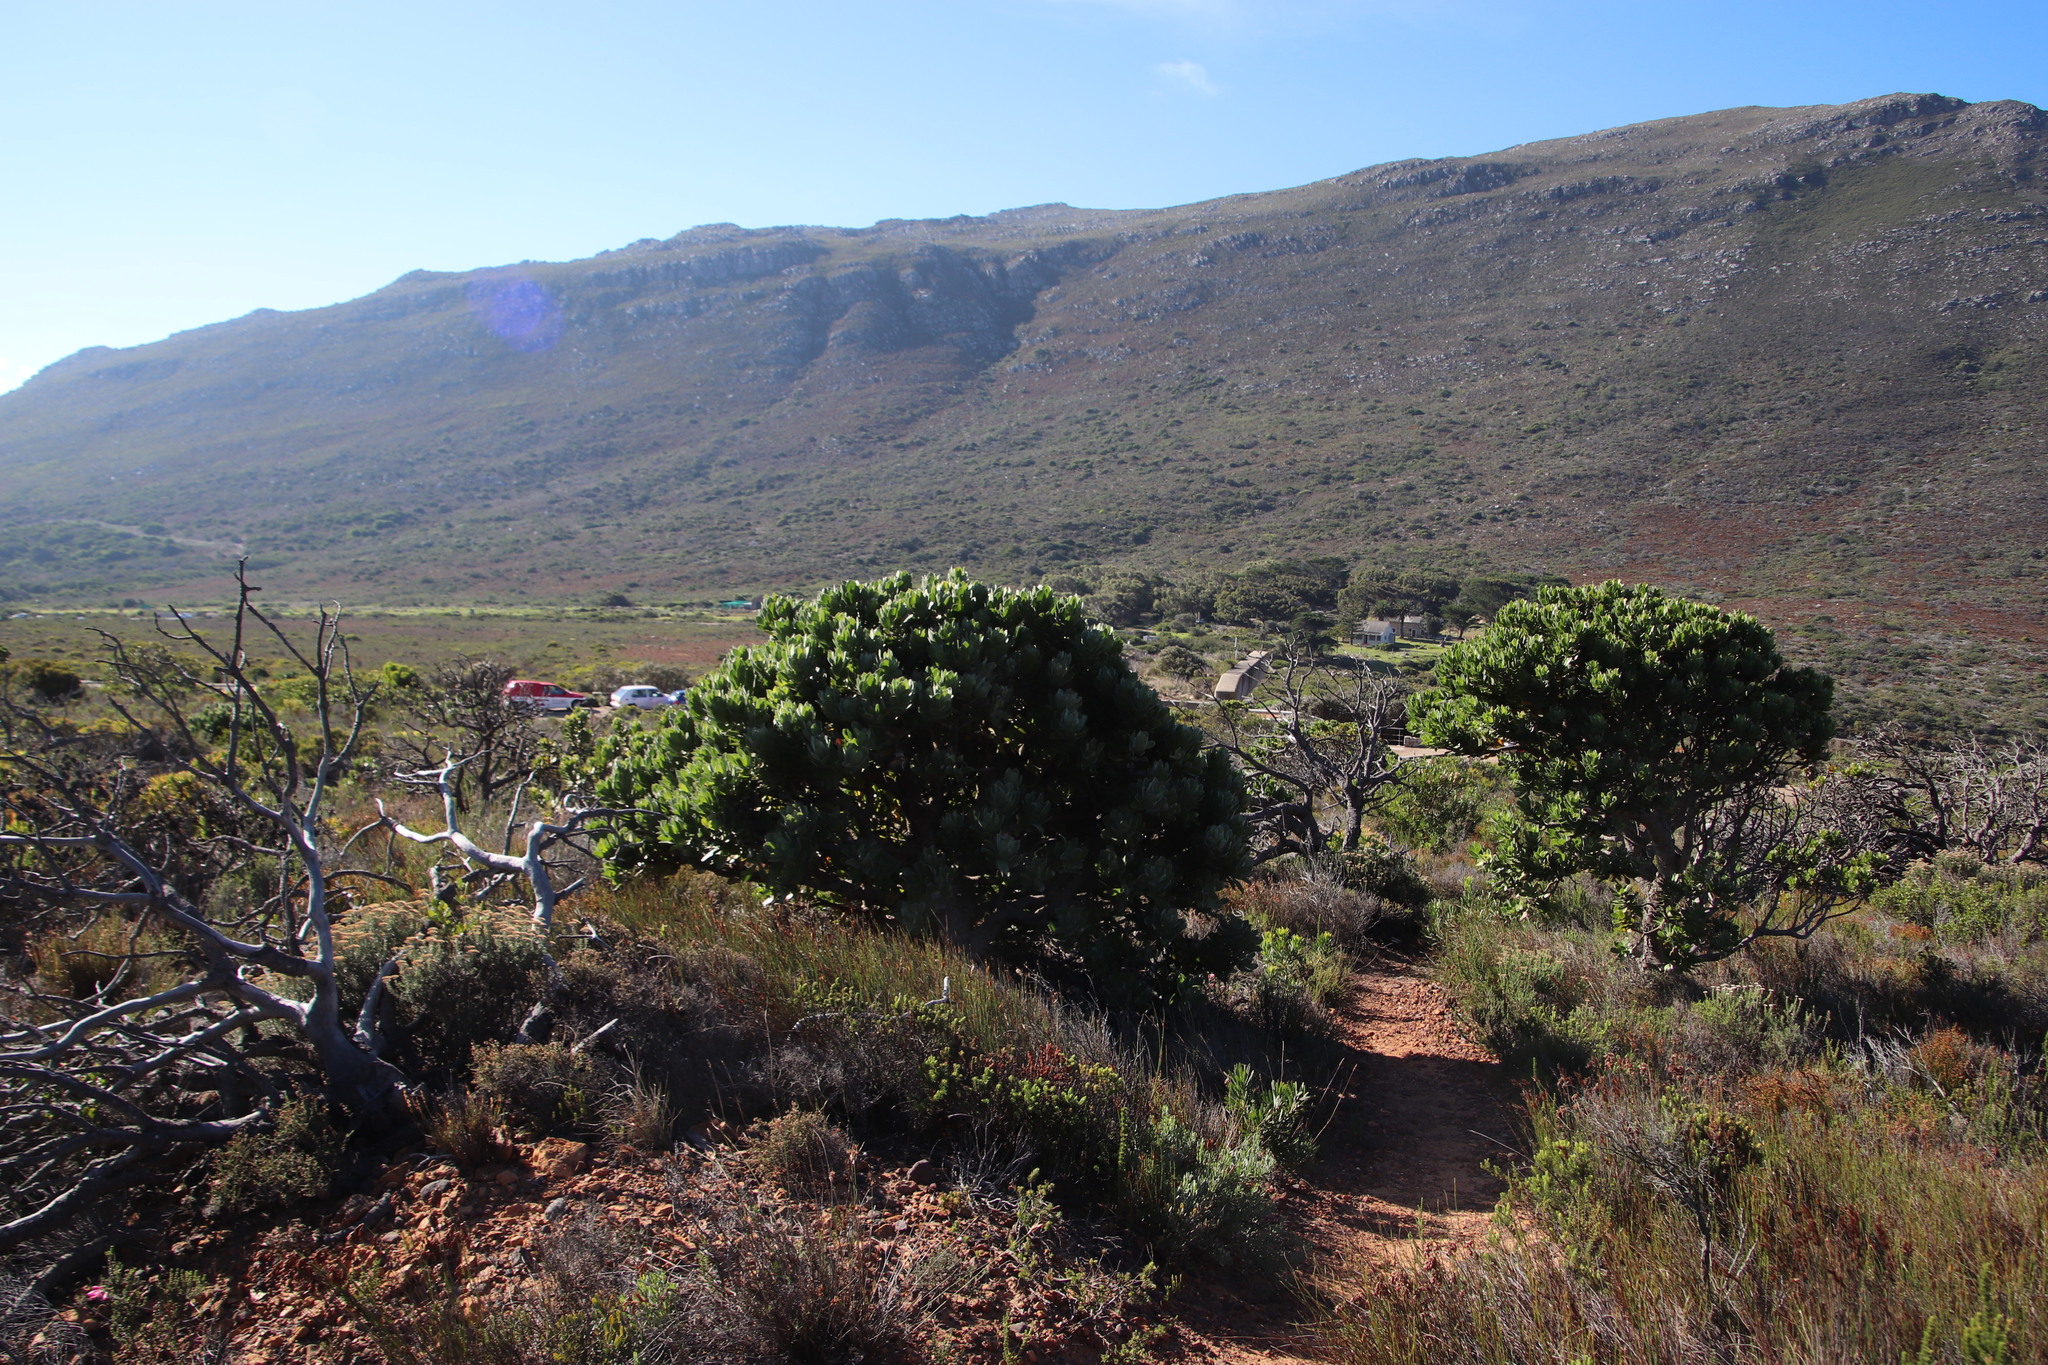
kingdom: Plantae
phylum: Tracheophyta
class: Magnoliopsida
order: Proteales
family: Proteaceae
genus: Leucospermum
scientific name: Leucospermum conocarpodendron
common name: Tree pincushion
